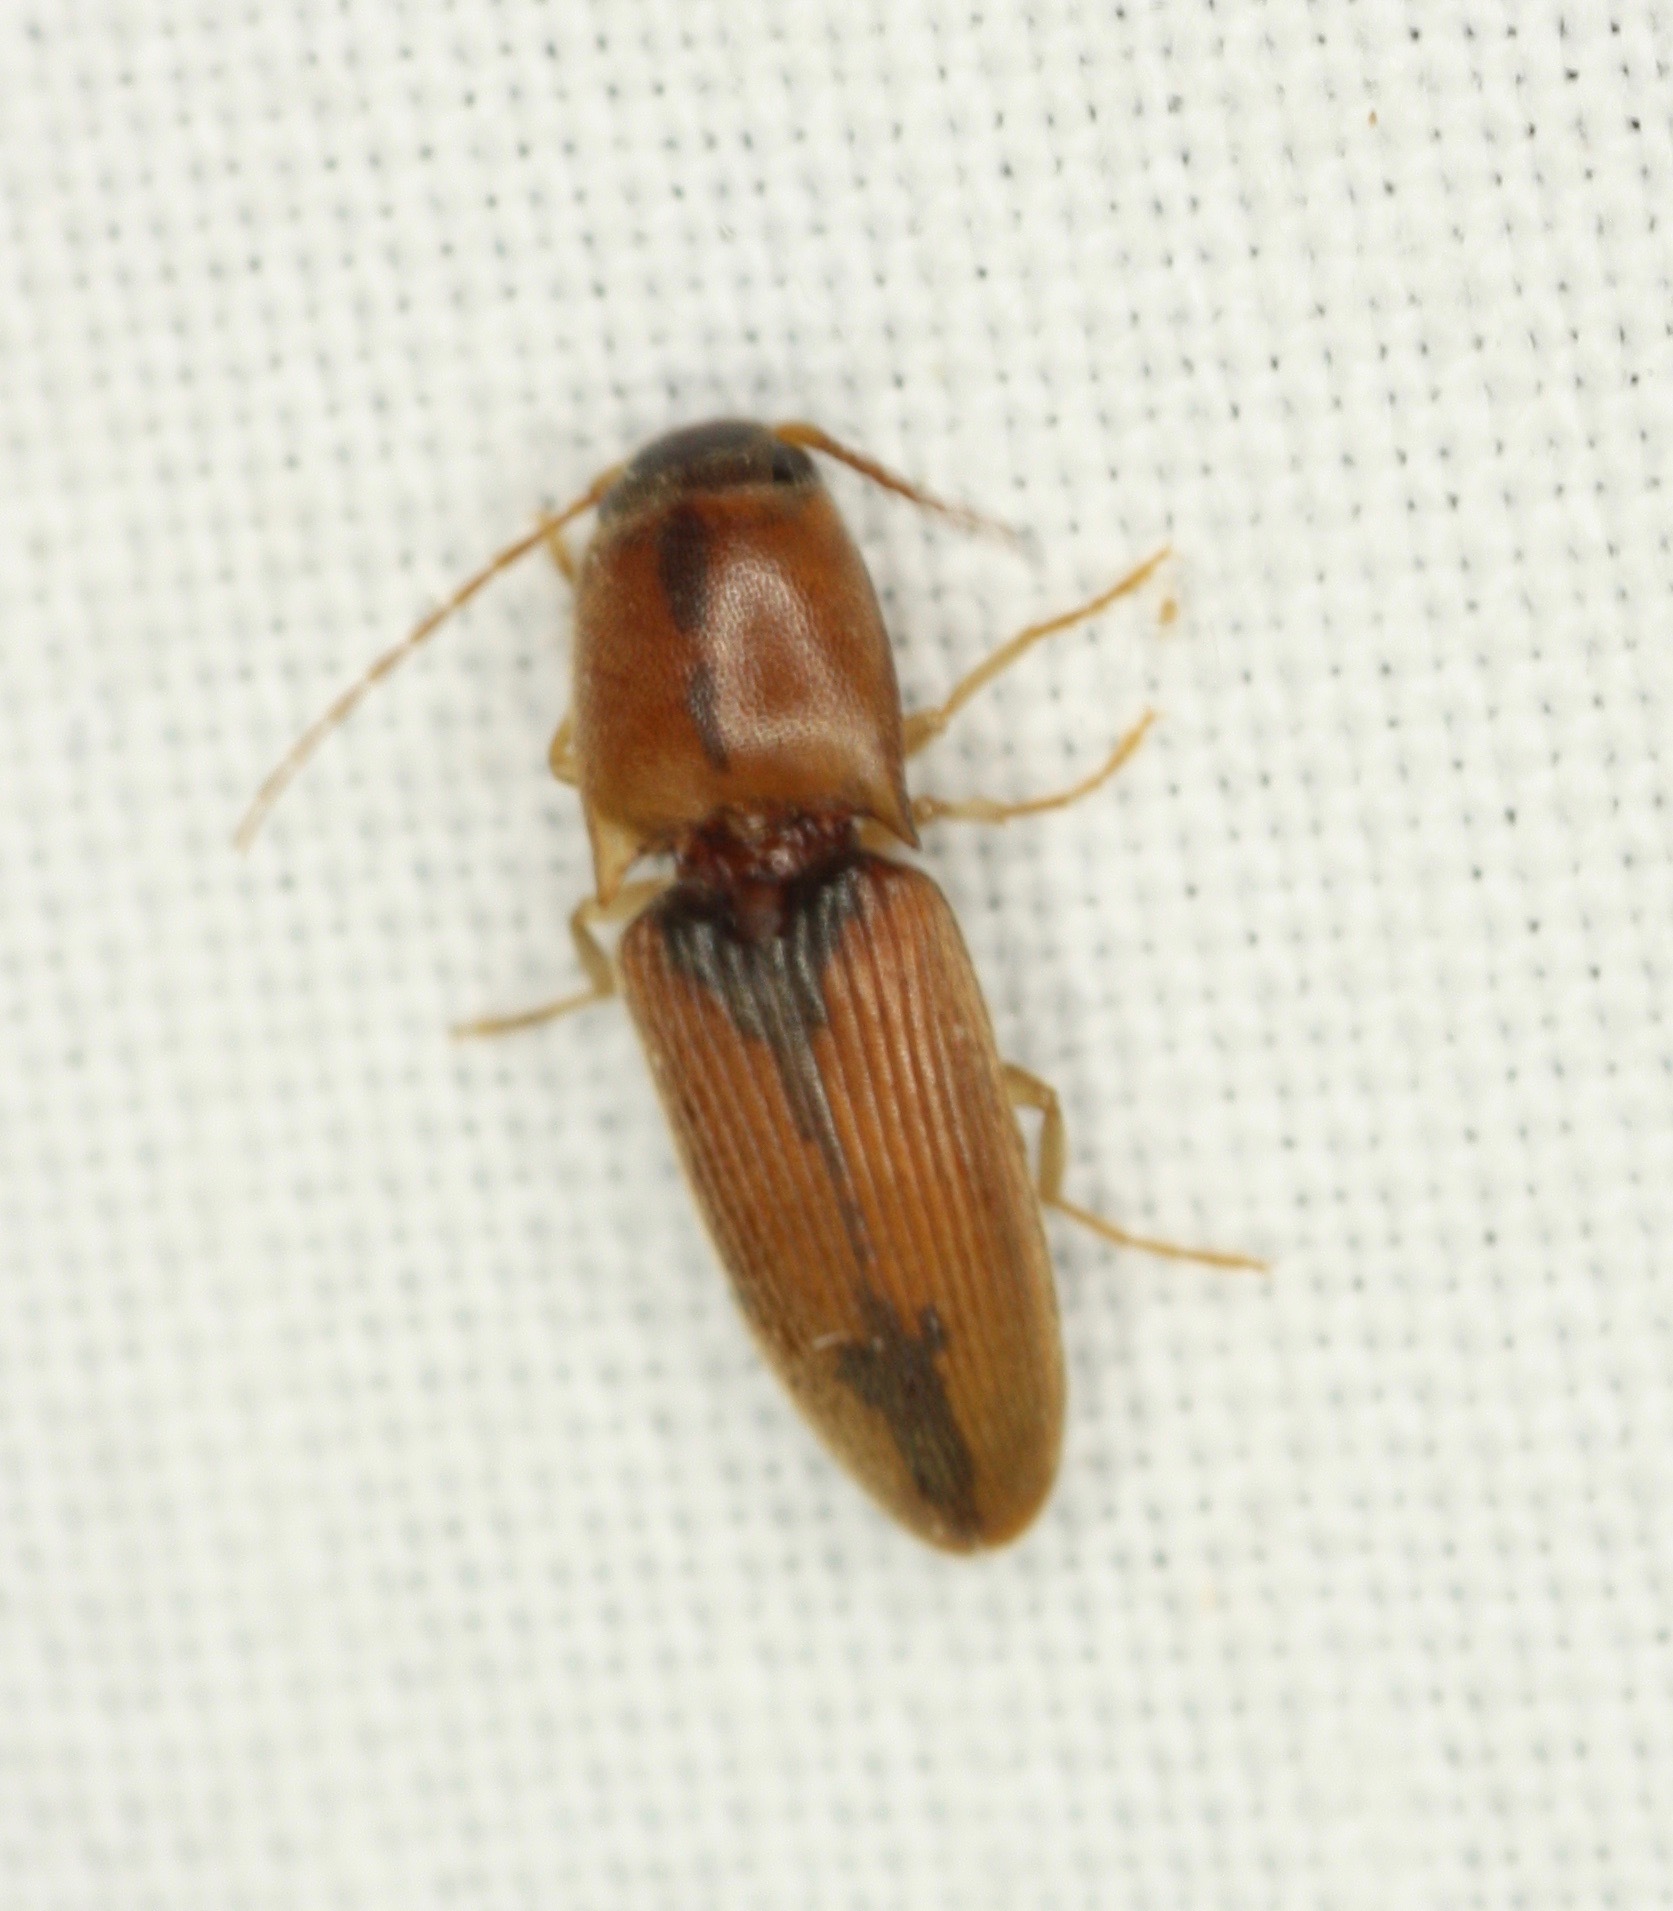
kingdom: Animalia
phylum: Arthropoda
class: Insecta
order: Coleoptera
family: Elateridae
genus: Monocrepidius
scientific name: Monocrepidius browni
